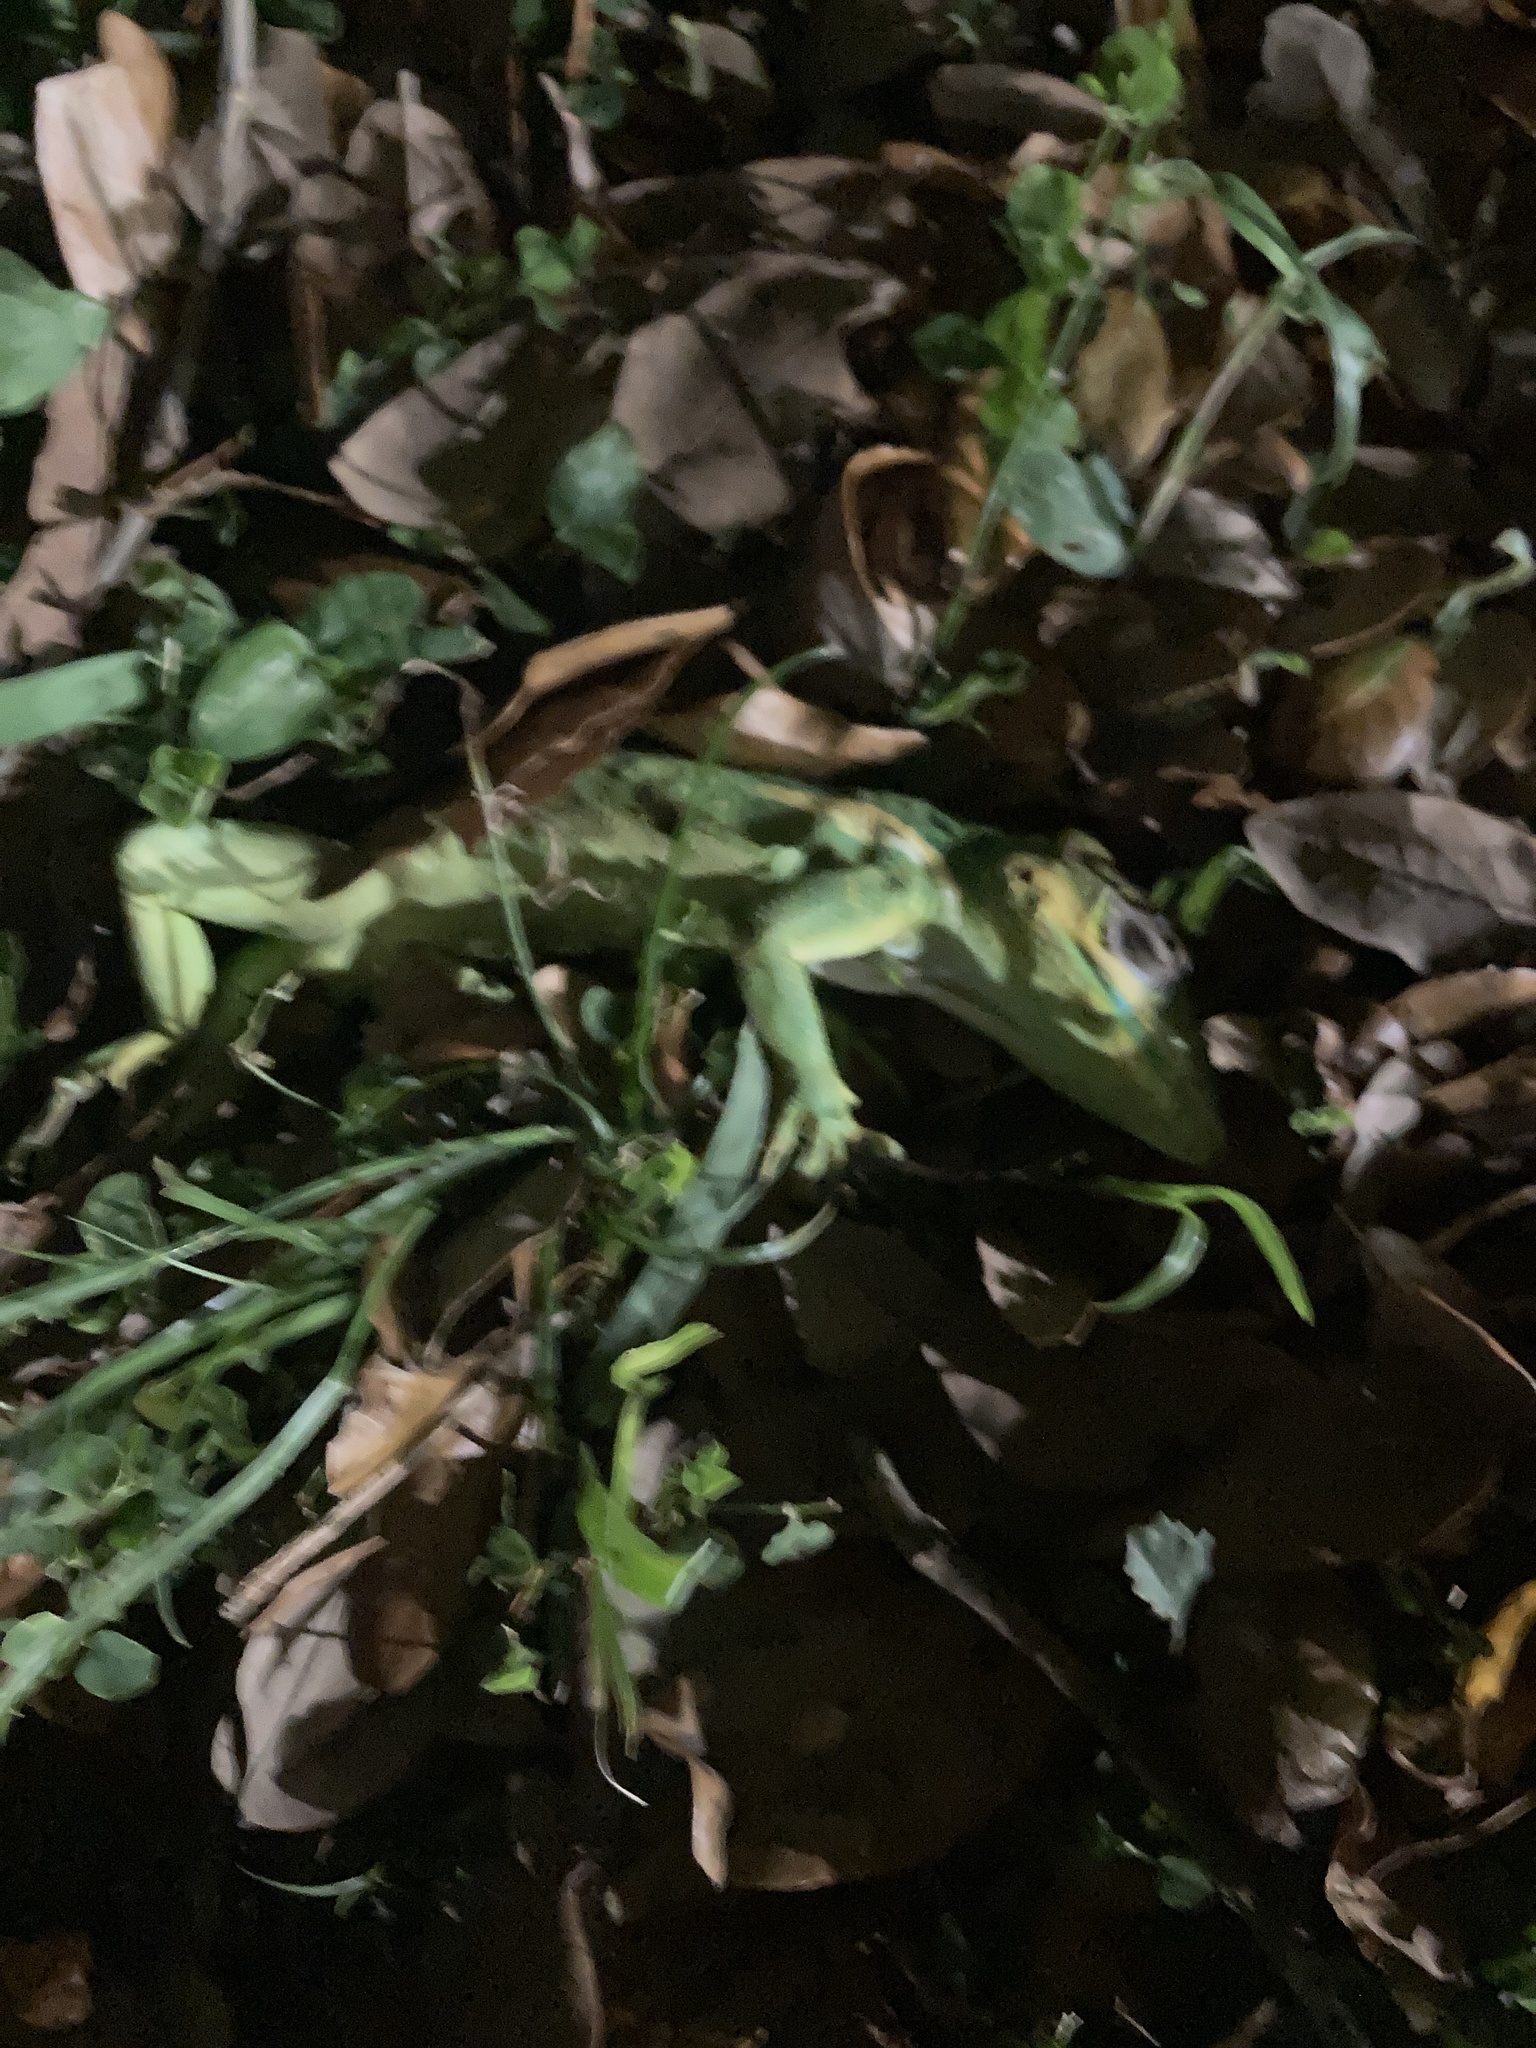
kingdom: Animalia
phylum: Chordata
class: Squamata
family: Dactyloidae
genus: Anolis
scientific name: Anolis equestris
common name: Knight anole
